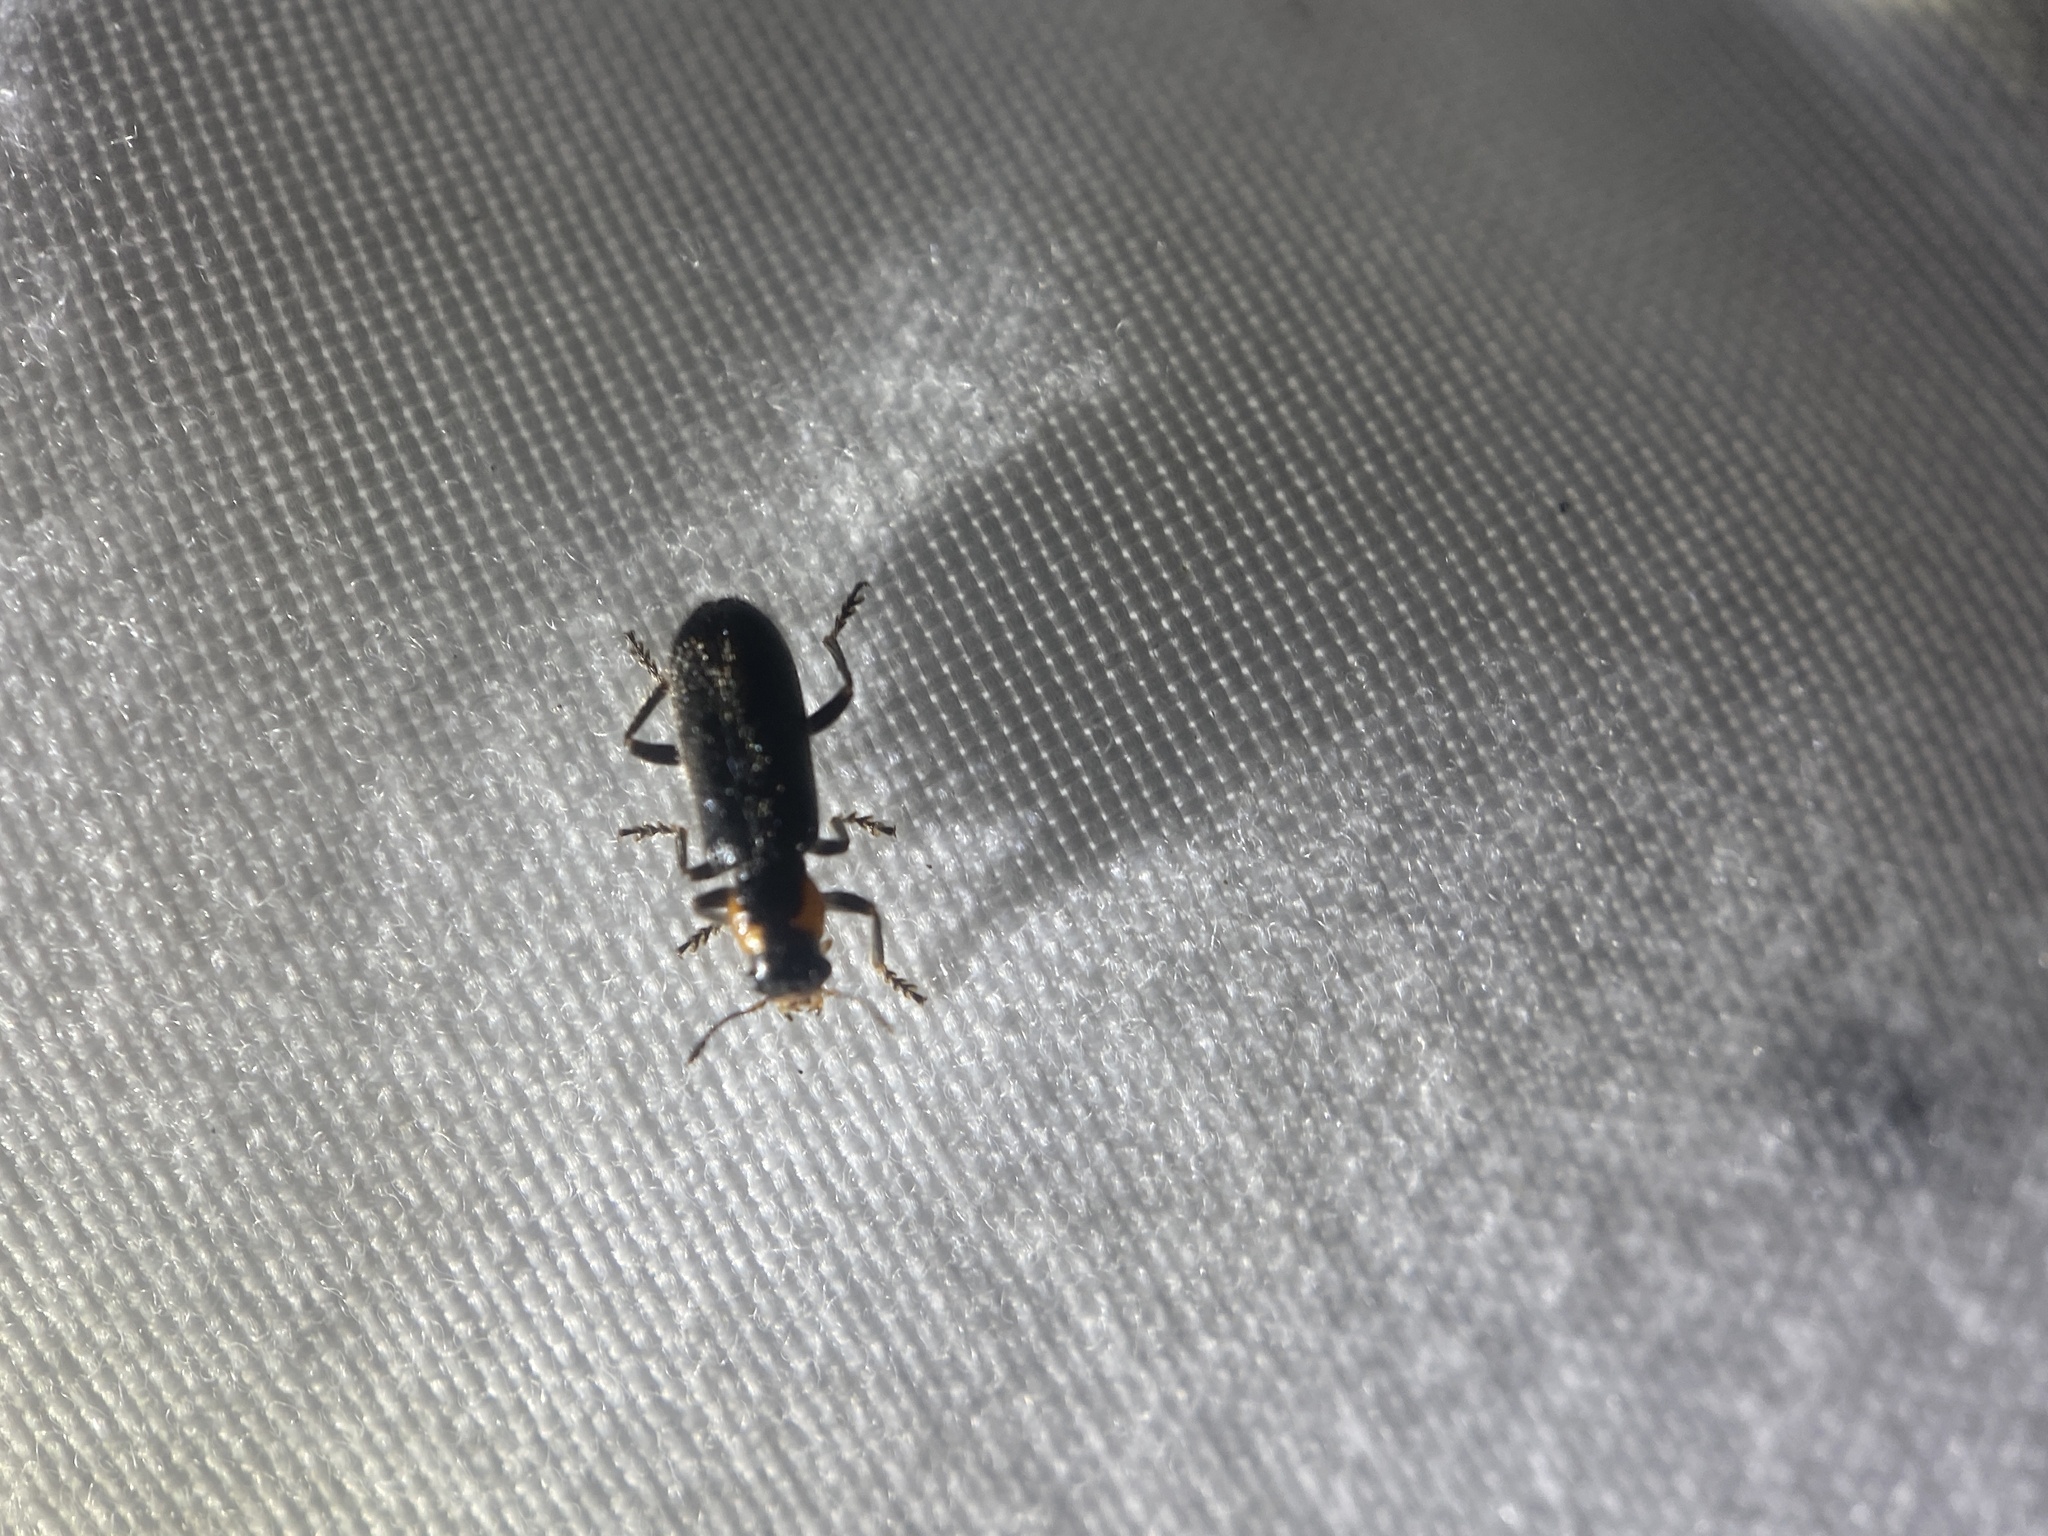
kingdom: Animalia
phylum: Arthropoda
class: Insecta
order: Coleoptera
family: Cleridae
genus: Placopterus
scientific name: Placopterus thoracicus
